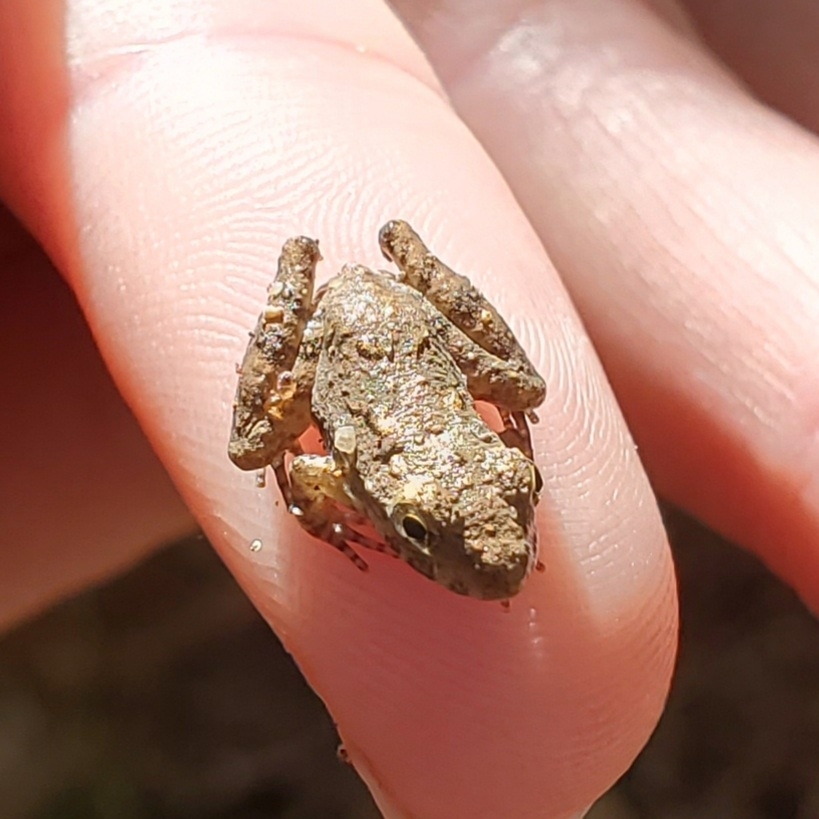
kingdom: Animalia
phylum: Chordata
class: Amphibia
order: Anura
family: Hylidae
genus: Acris
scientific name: Acris blanchardi
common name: Blanchard's cricket frog
